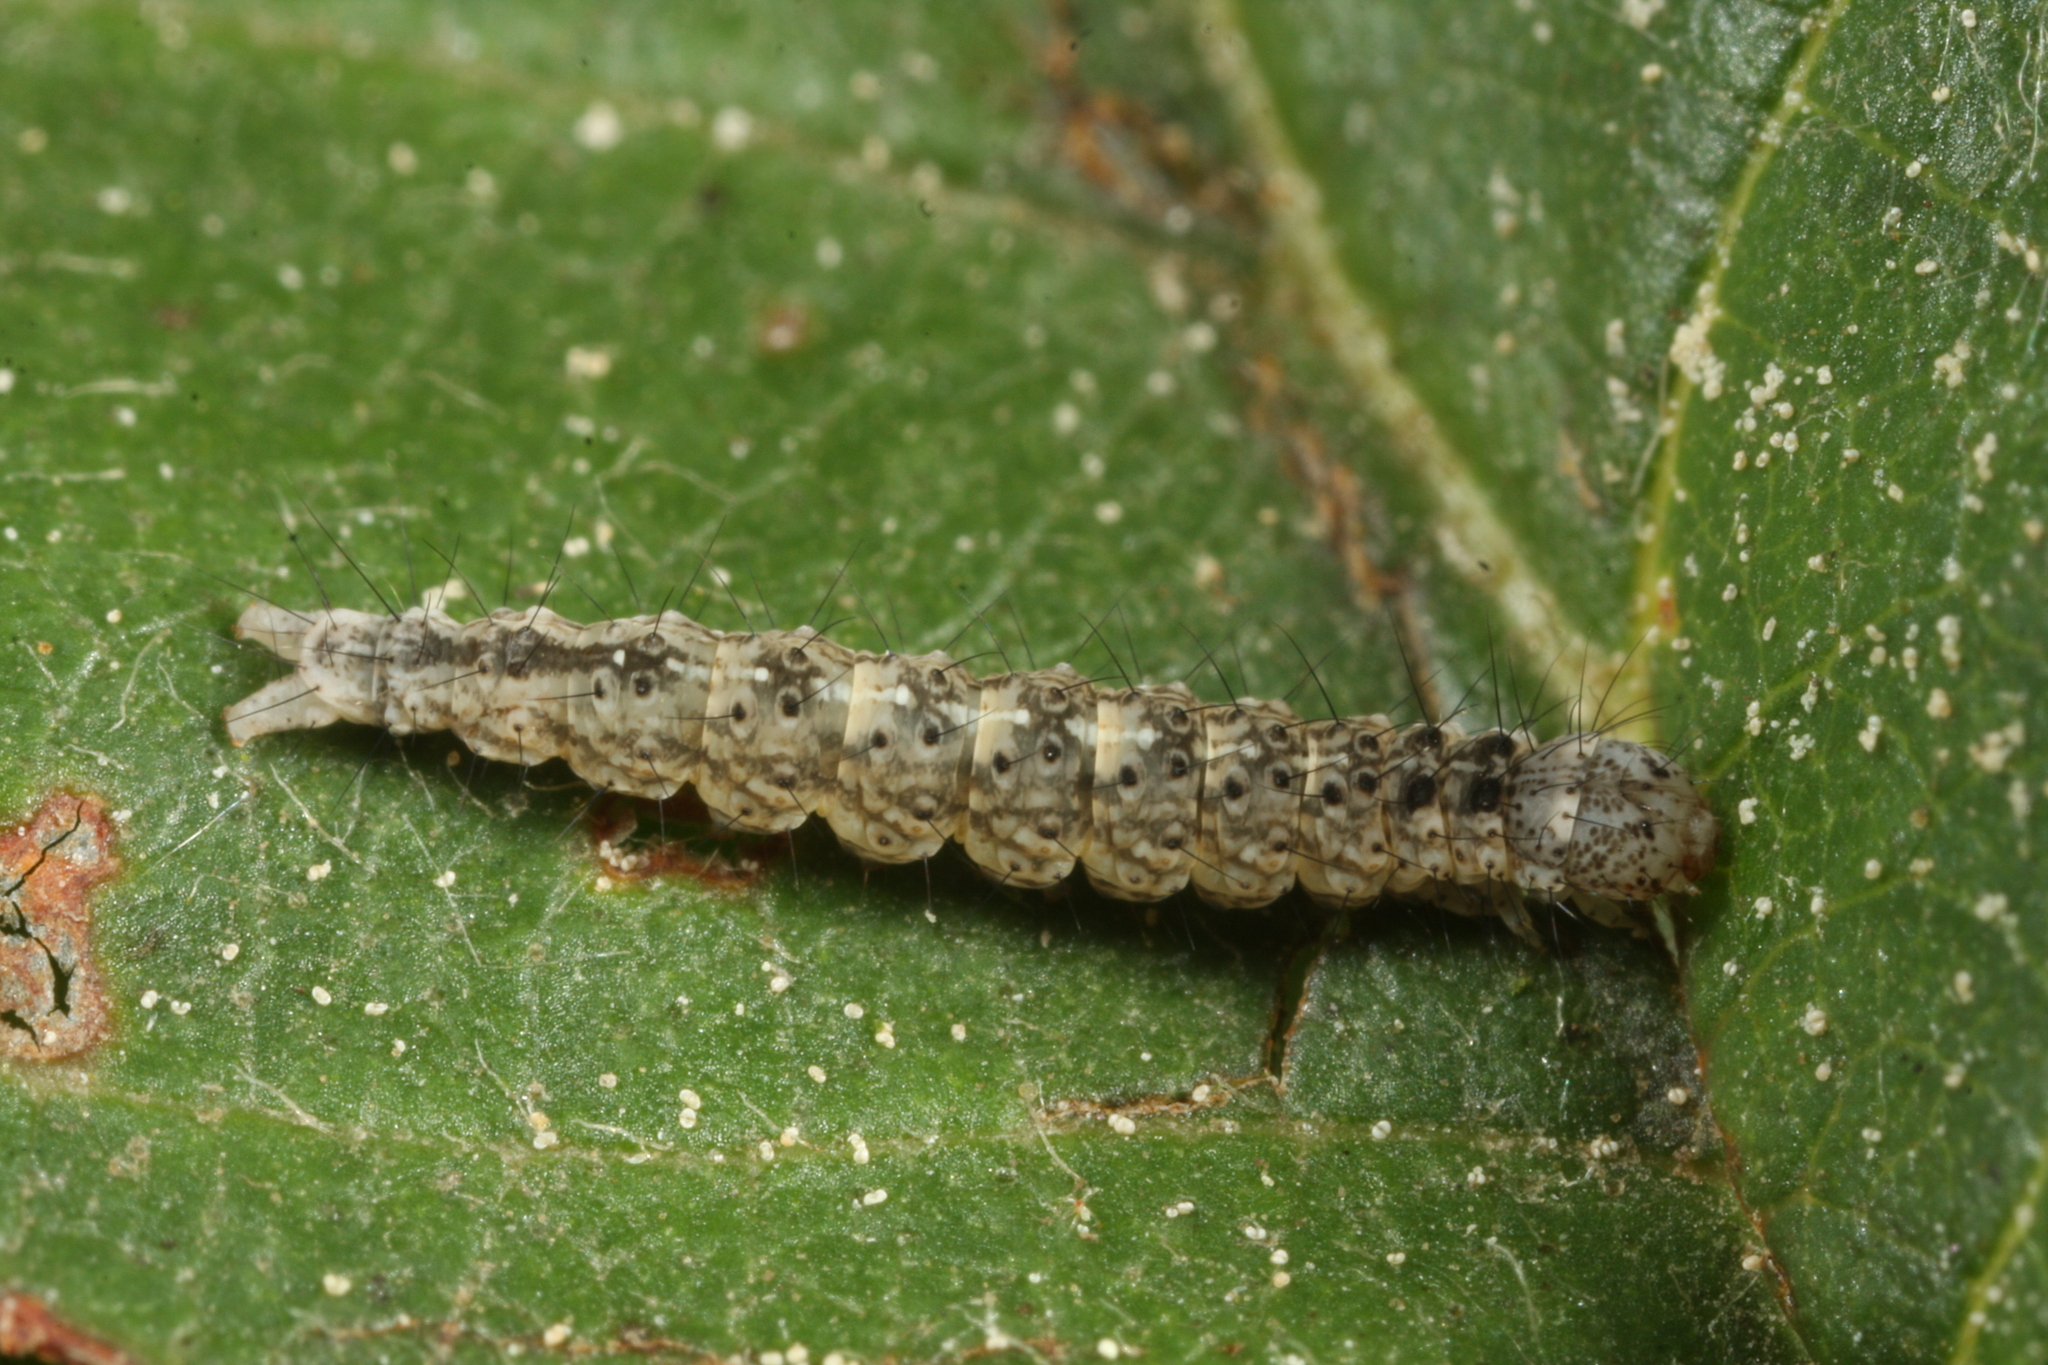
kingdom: Animalia
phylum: Arthropoda
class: Insecta
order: Lepidoptera
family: Ypsolophidae
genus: Ypsolopha
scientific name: Ypsolopha mucronella
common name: Spindle smudge
